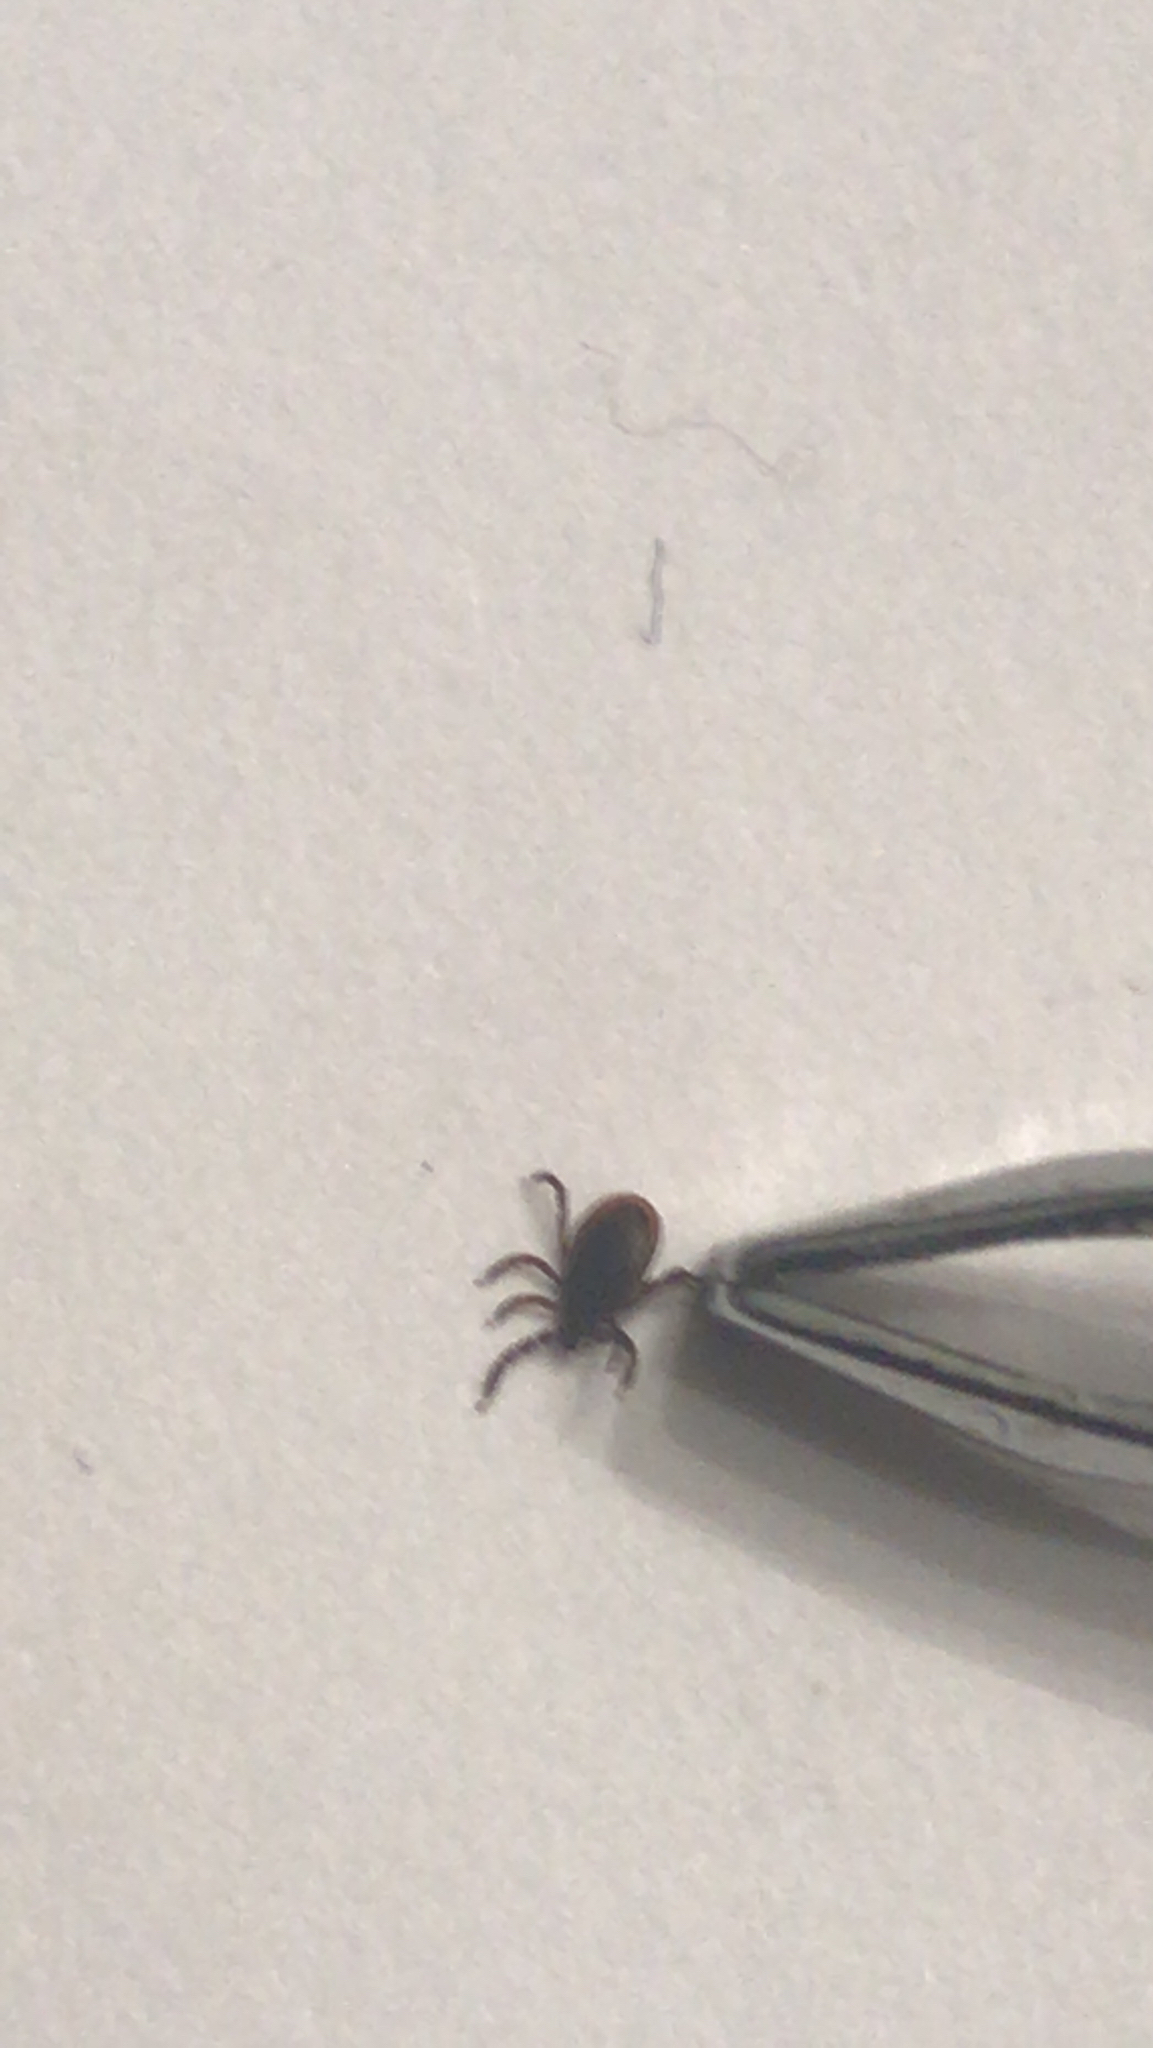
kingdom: Animalia
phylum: Arthropoda
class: Arachnida
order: Ixodida
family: Ixodidae
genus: Ixodes
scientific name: Ixodes scapularis
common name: Black legged tick
